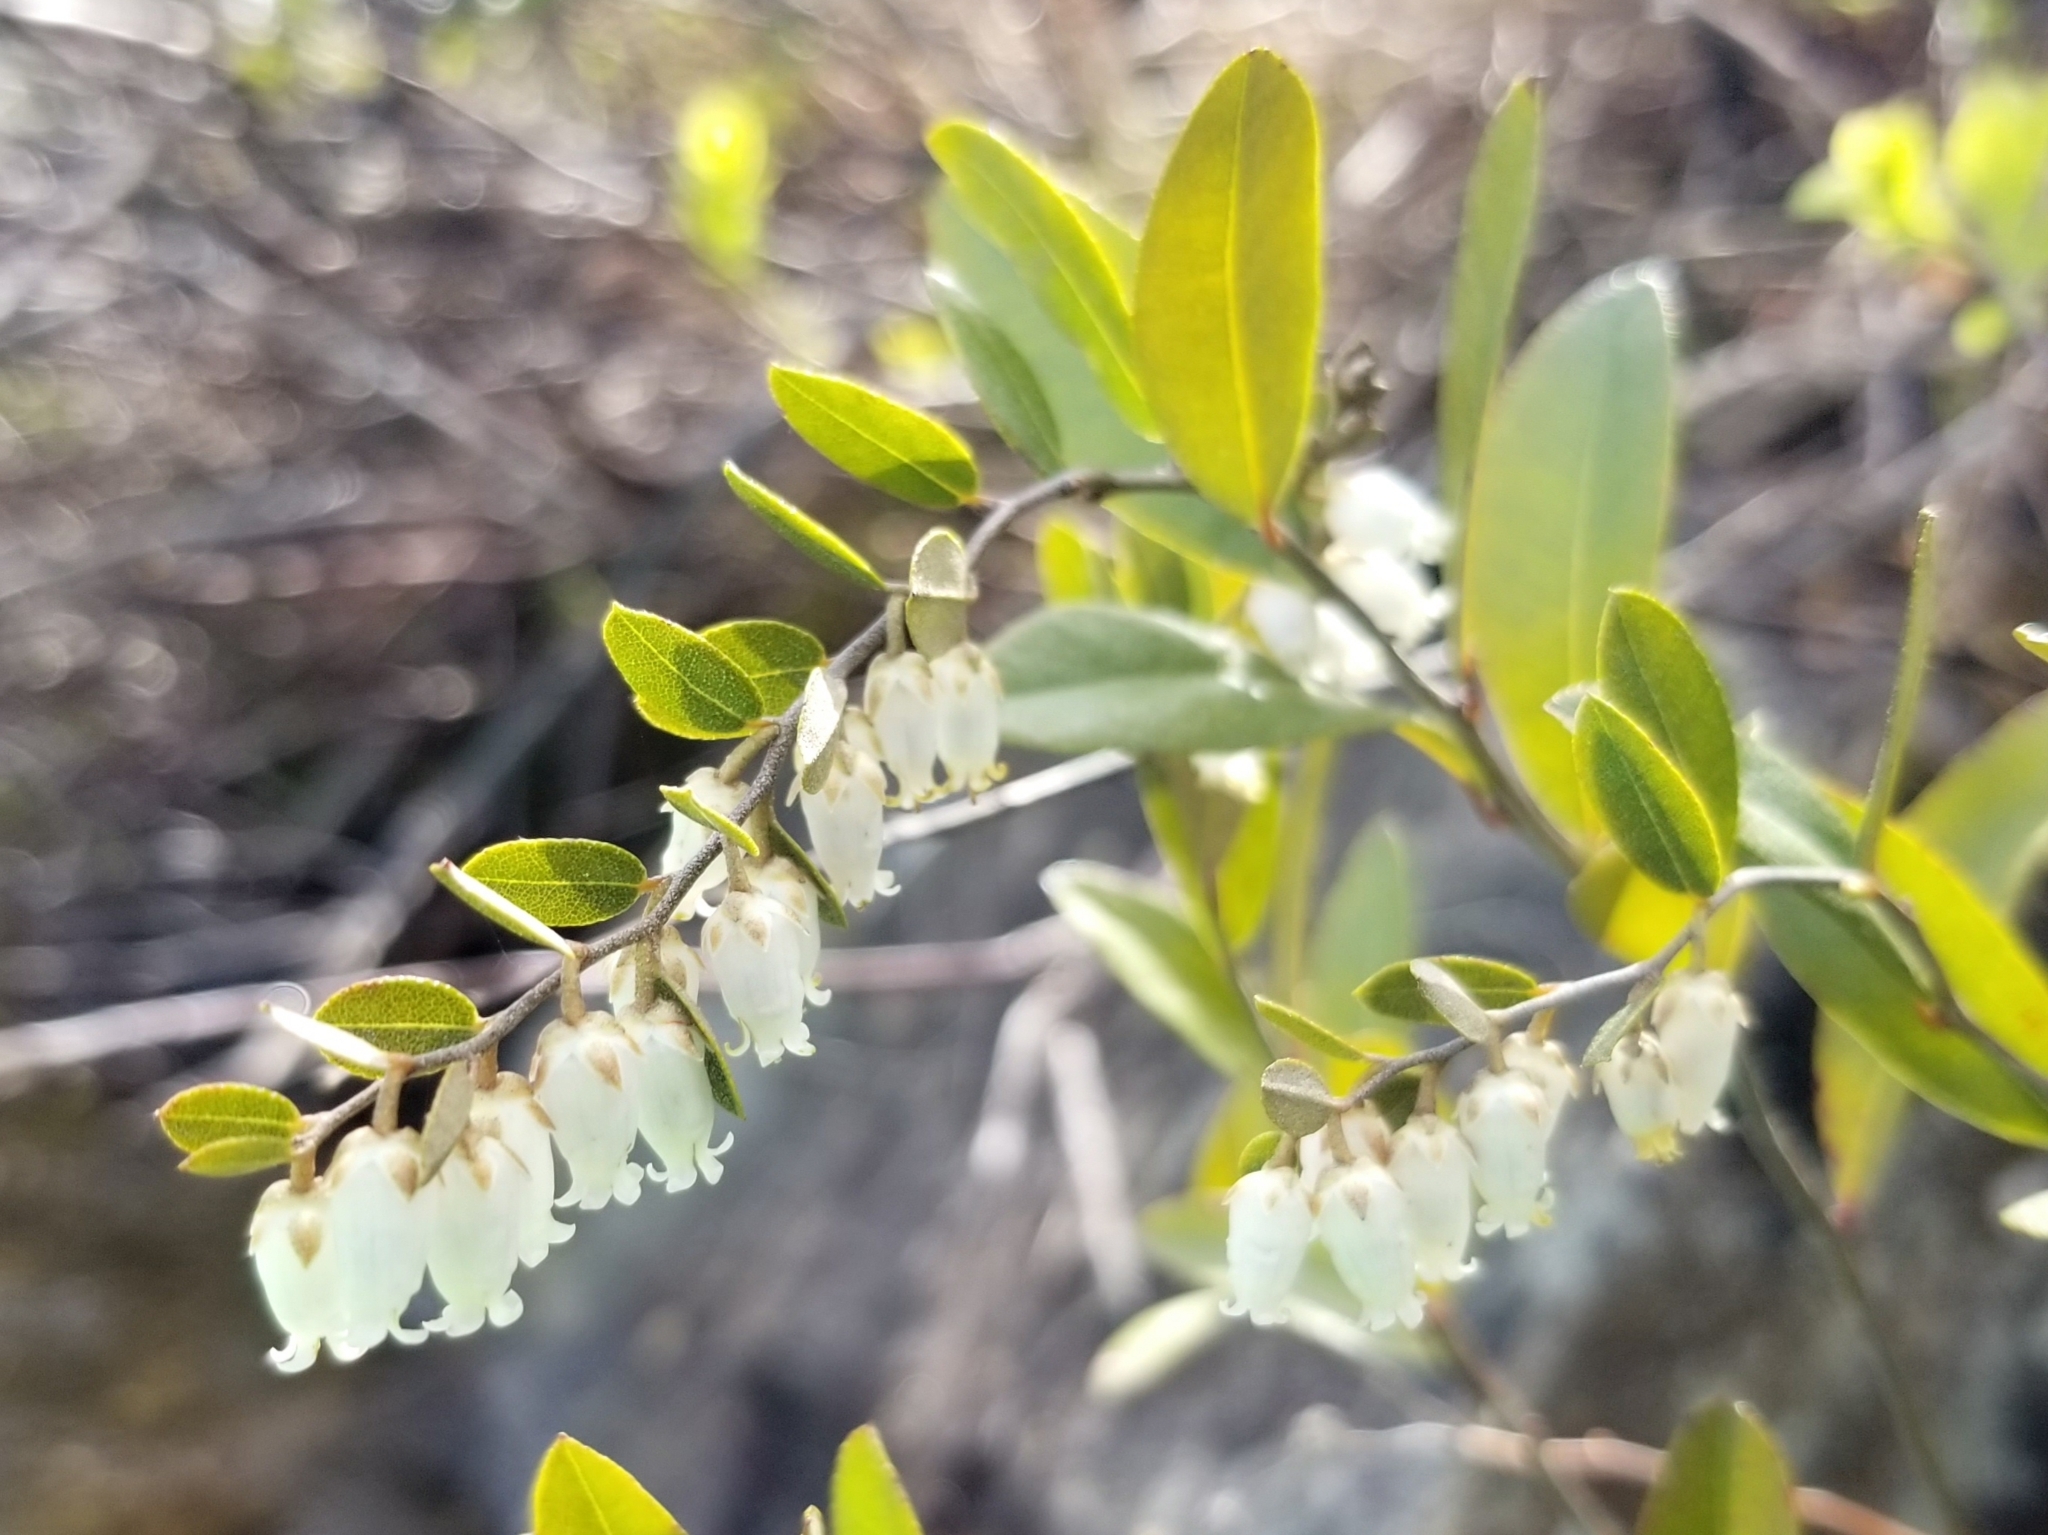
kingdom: Plantae
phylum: Tracheophyta
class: Magnoliopsida
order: Ericales
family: Ericaceae
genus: Chamaedaphne
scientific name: Chamaedaphne calyculata
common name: Leatherleaf
